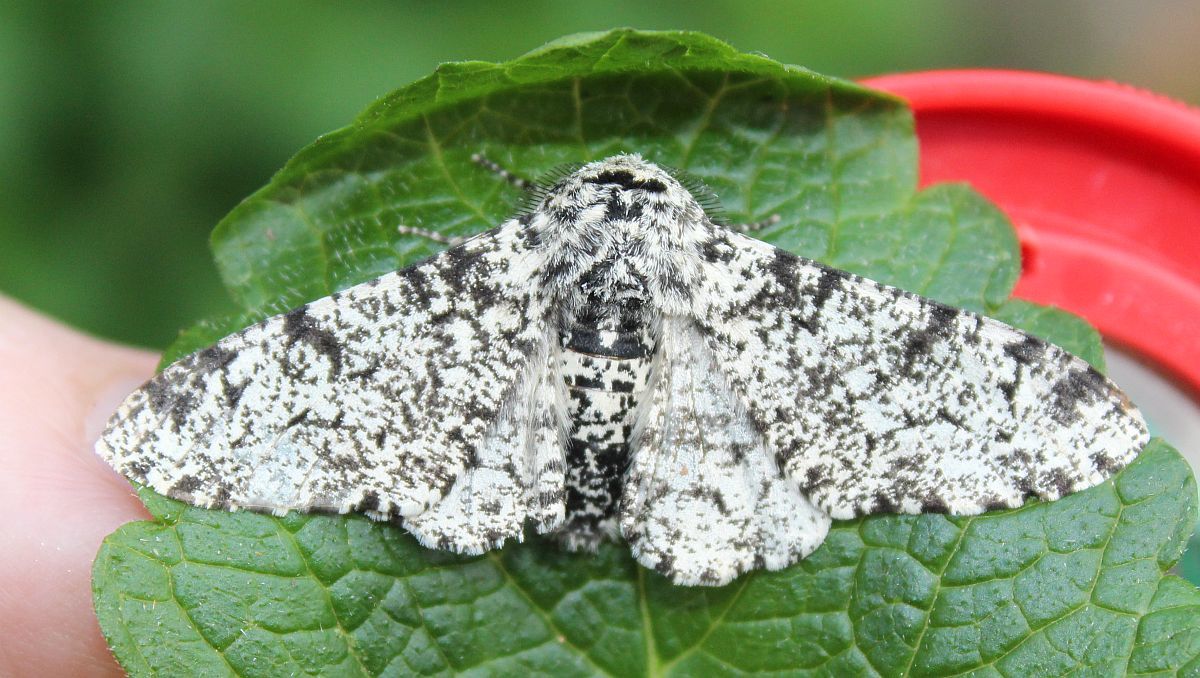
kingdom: Animalia
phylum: Arthropoda
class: Insecta
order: Lepidoptera
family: Geometridae
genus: Biston
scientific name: Biston betularia
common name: Peppered moth
